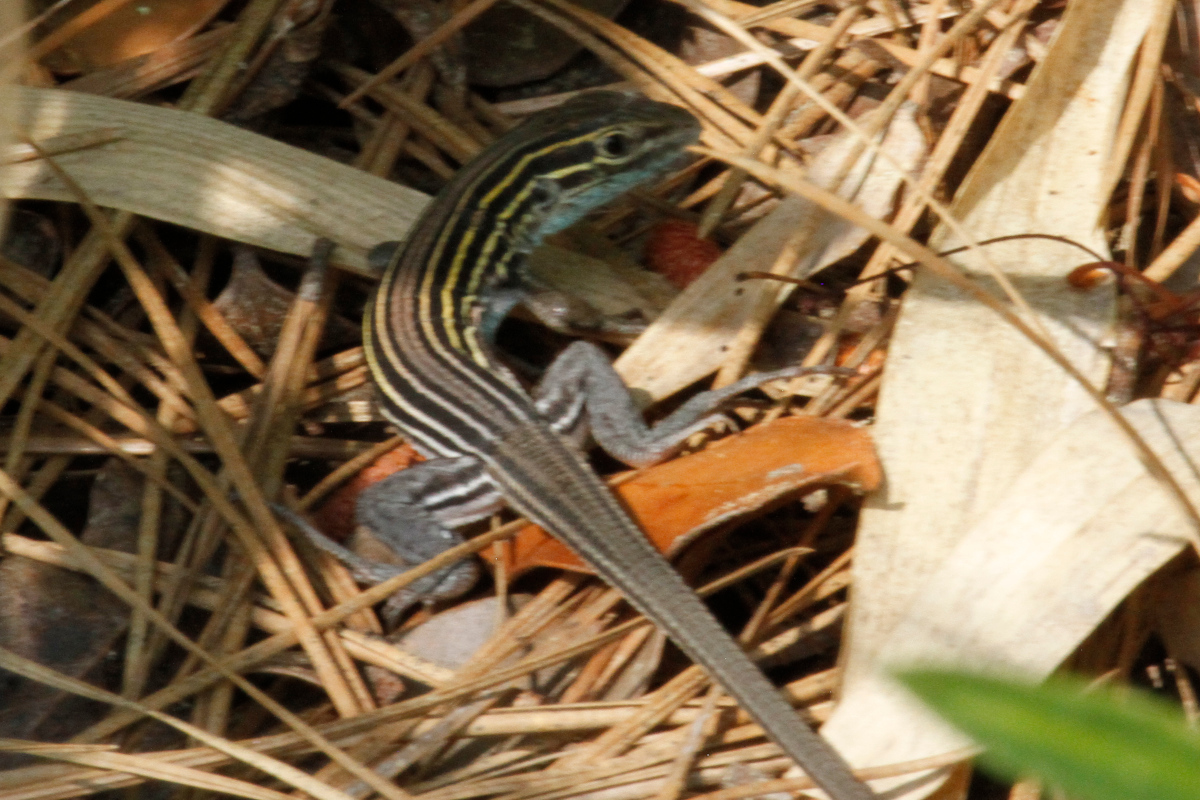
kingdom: Animalia
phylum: Chordata
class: Squamata
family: Teiidae
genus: Aspidoscelis
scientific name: Aspidoscelis sexlineatus
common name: Six-lined racerunner
